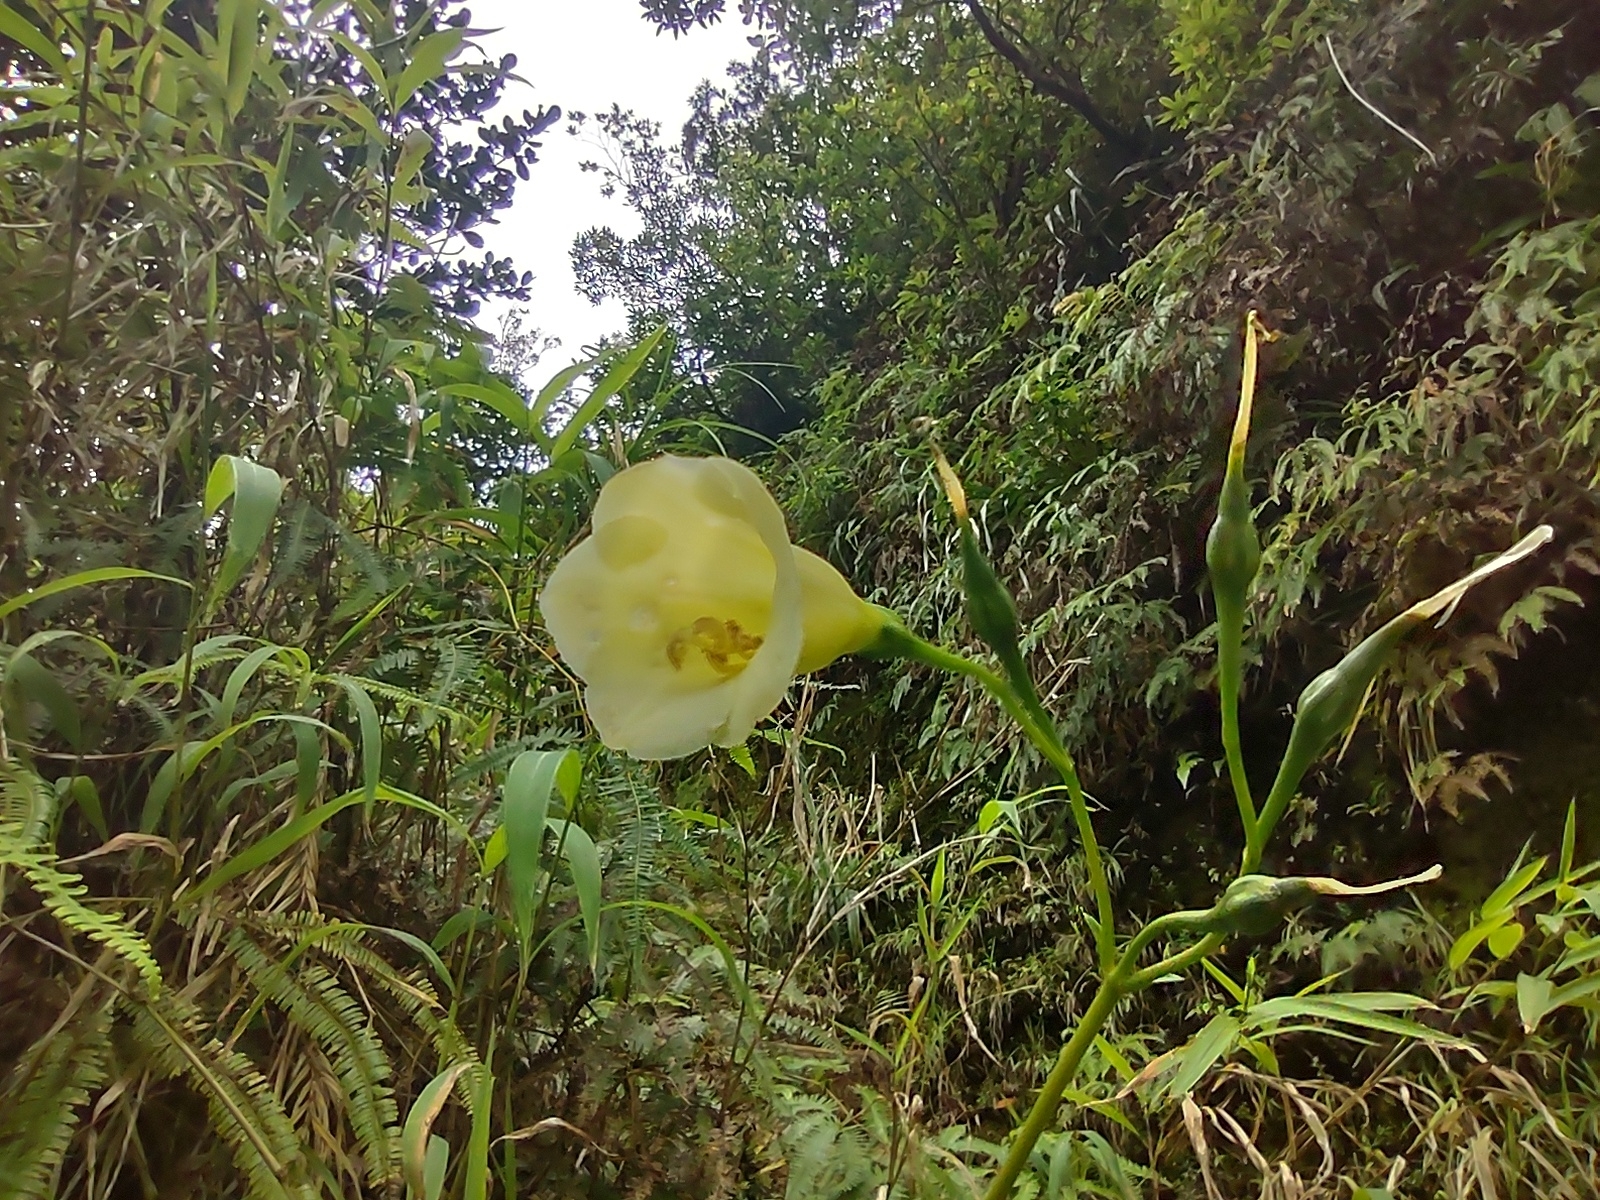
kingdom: Plantae
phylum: Tracheophyta
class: Magnoliopsida
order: Gentianales
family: Gentianaceae
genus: Symbolanthus
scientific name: Symbolanthus frigidus
